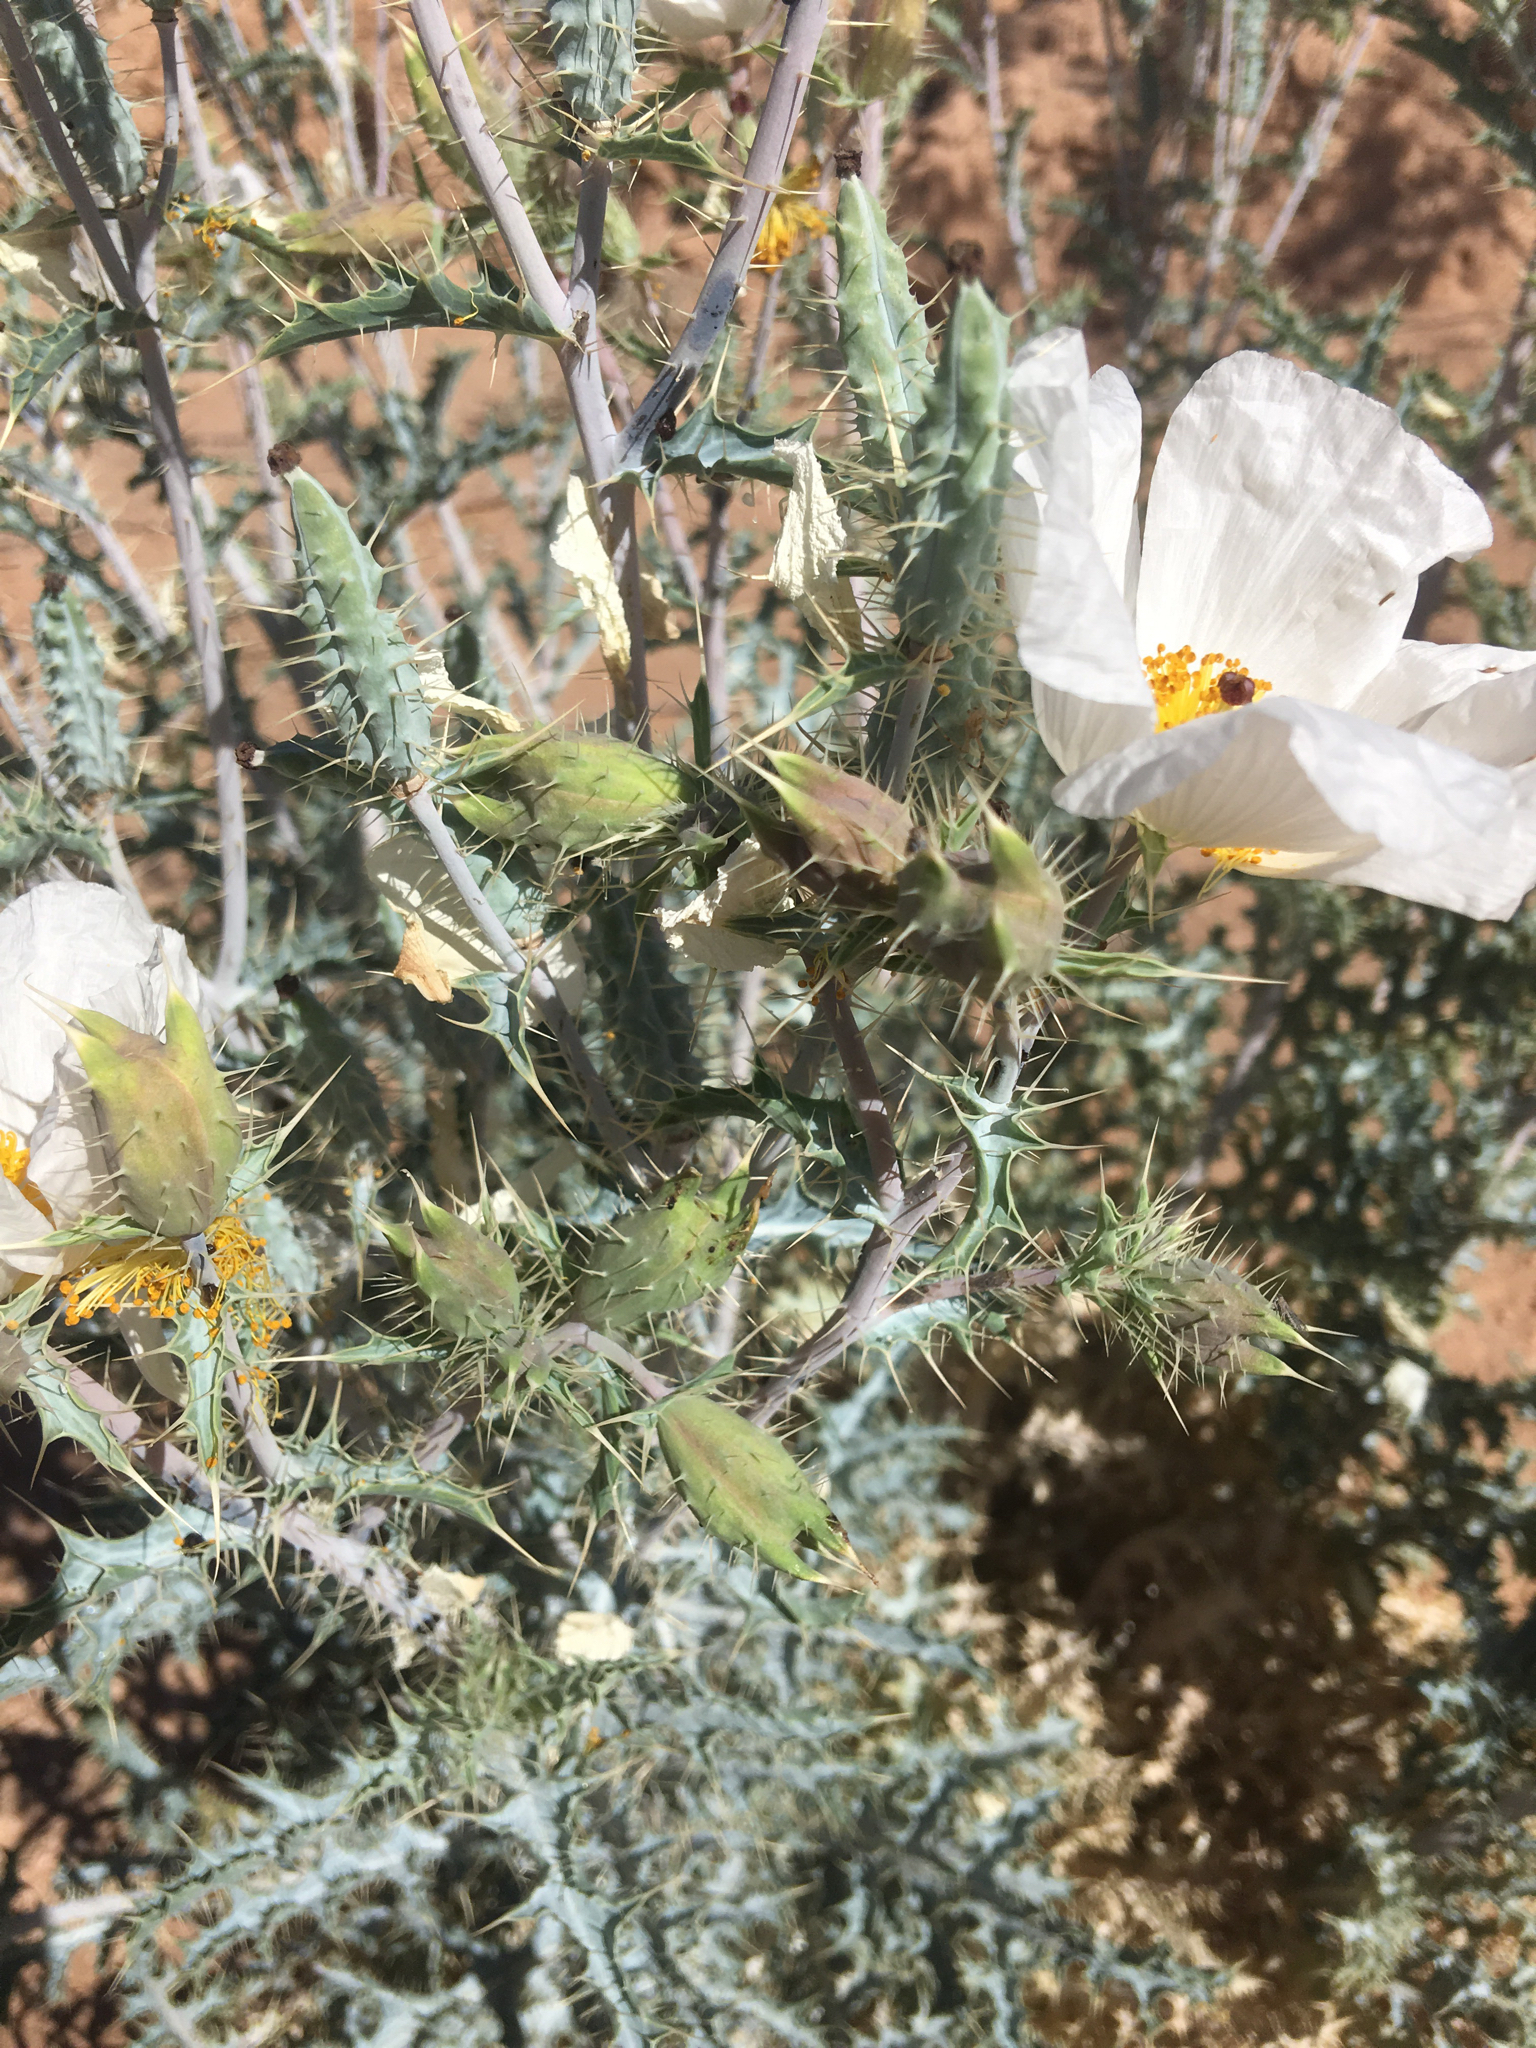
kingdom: Plantae
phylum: Tracheophyta
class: Magnoliopsida
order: Ranunculales
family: Papaveraceae
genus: Argemone
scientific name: Argemone gracilenta
